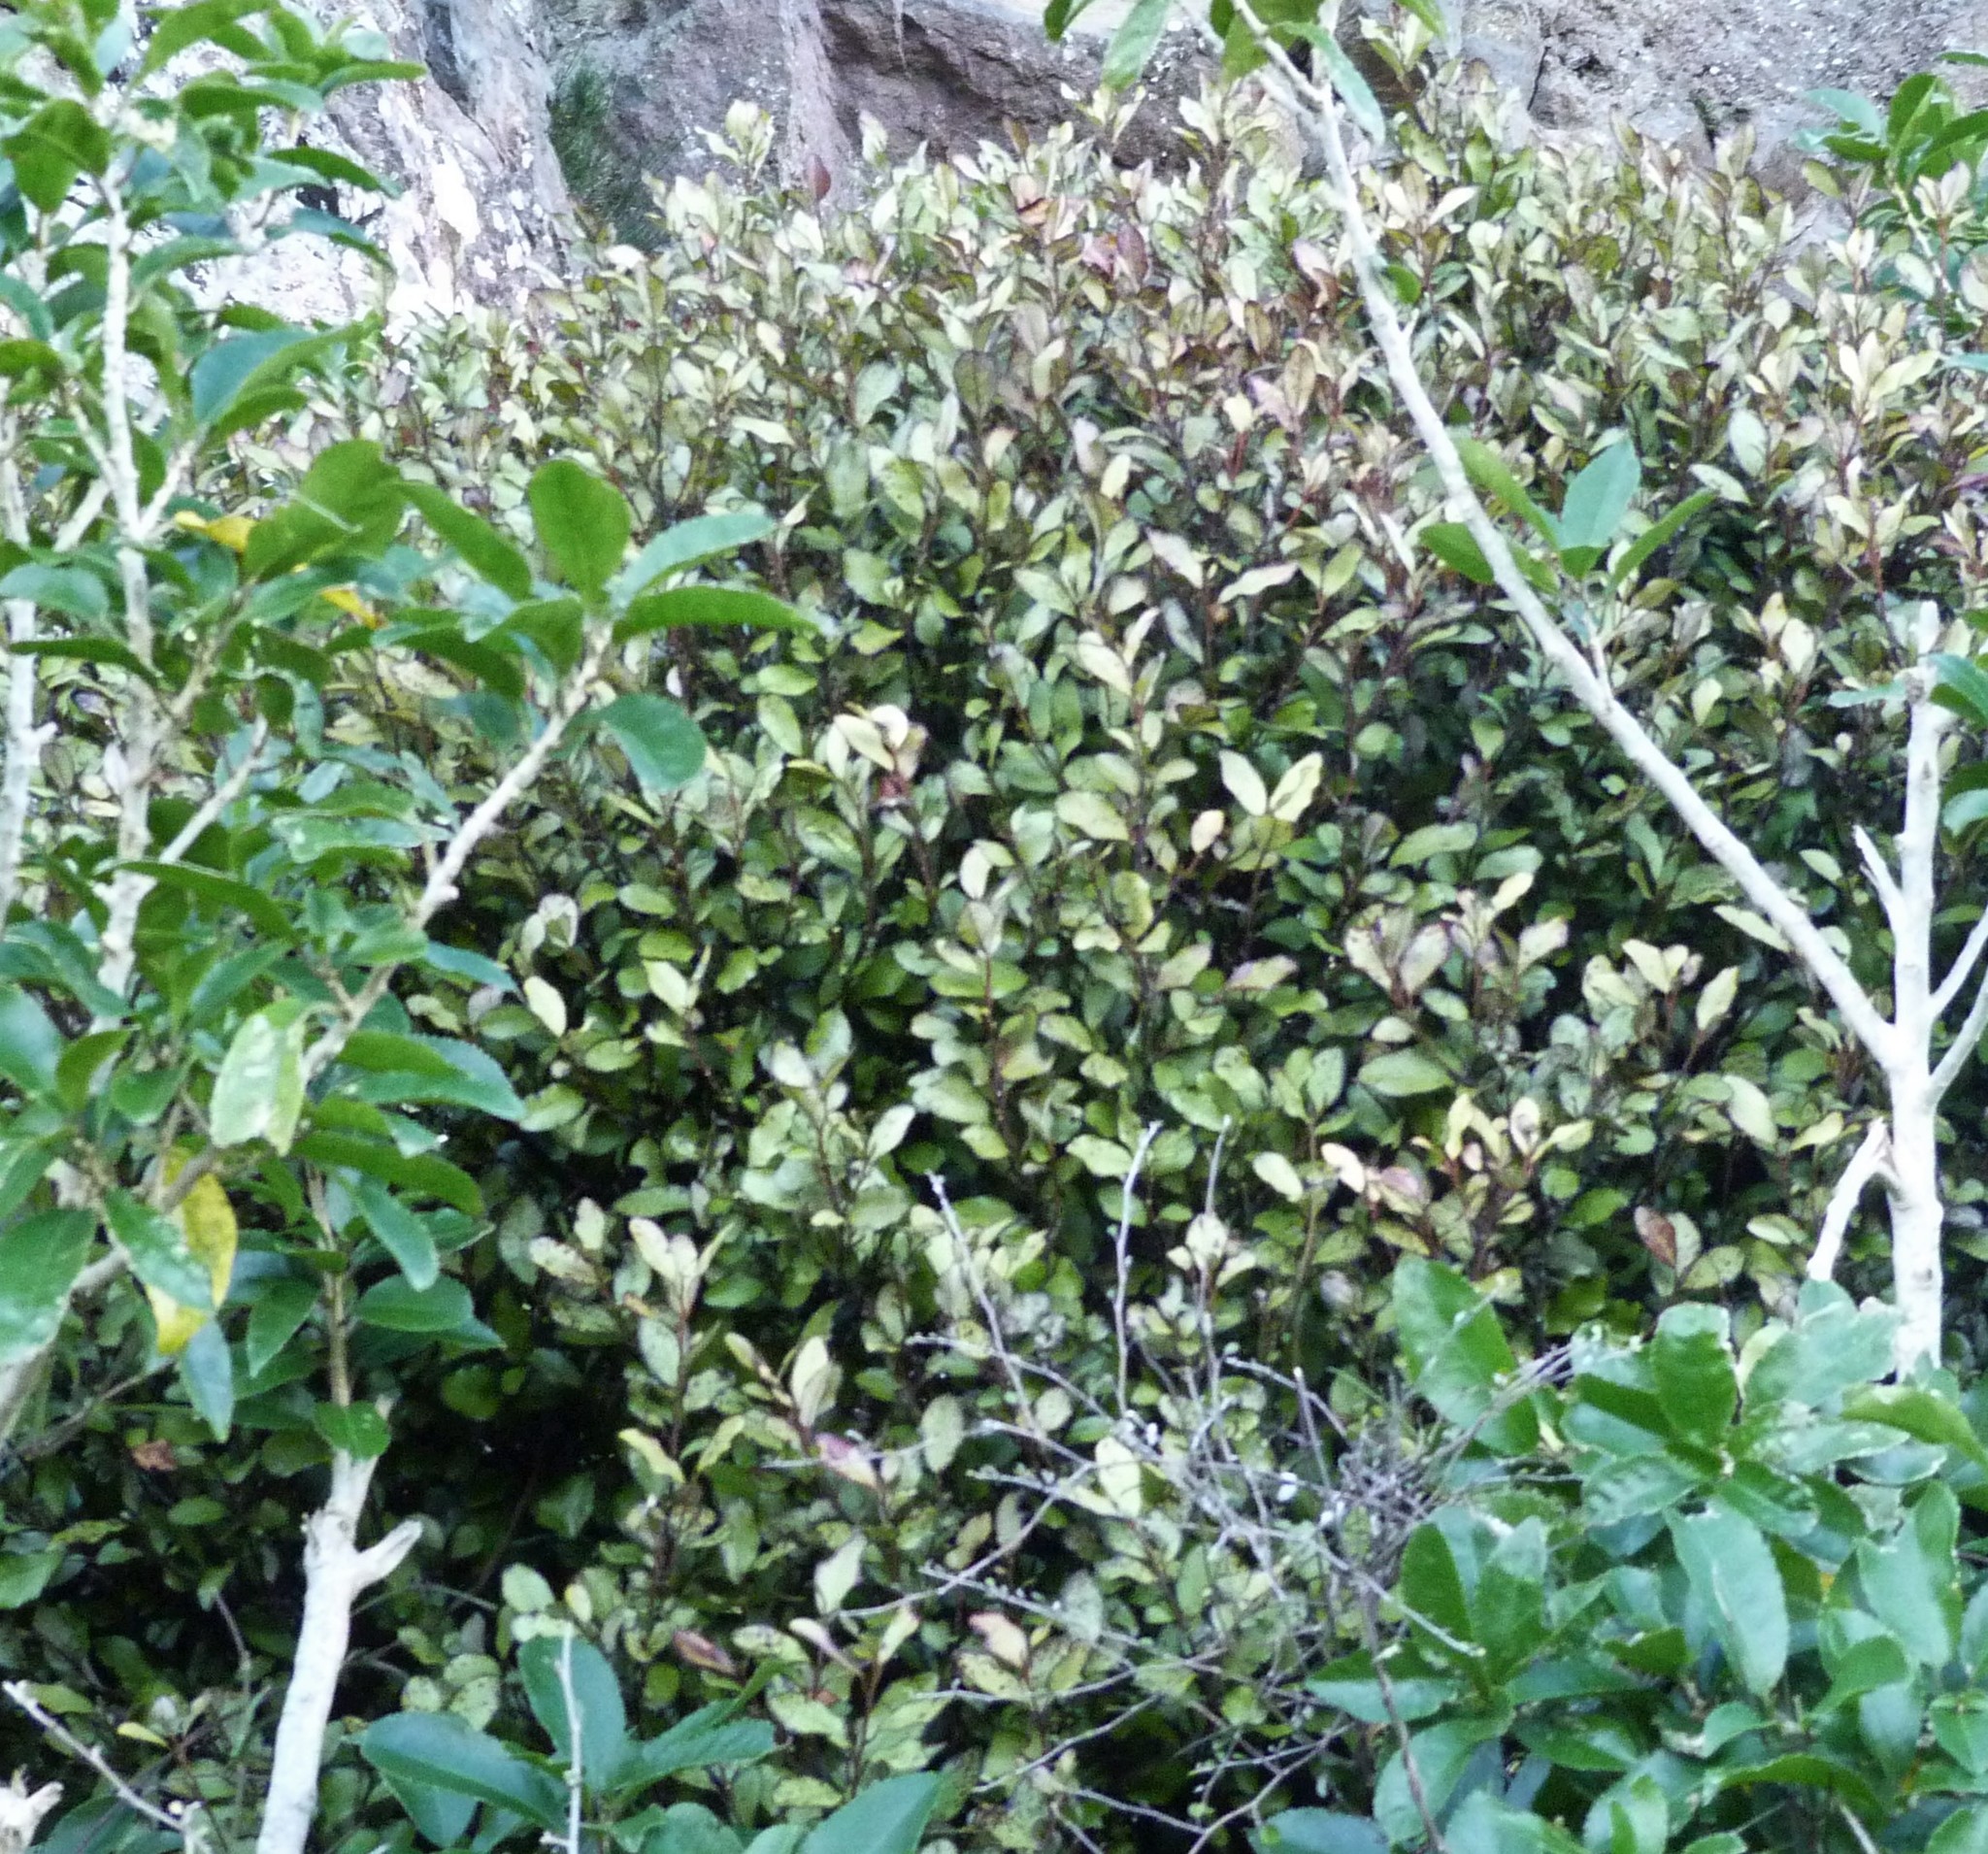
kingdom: Plantae
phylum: Tracheophyta
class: Magnoliopsida
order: Canellales
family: Winteraceae
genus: Pseudowintera
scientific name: Pseudowintera colorata
